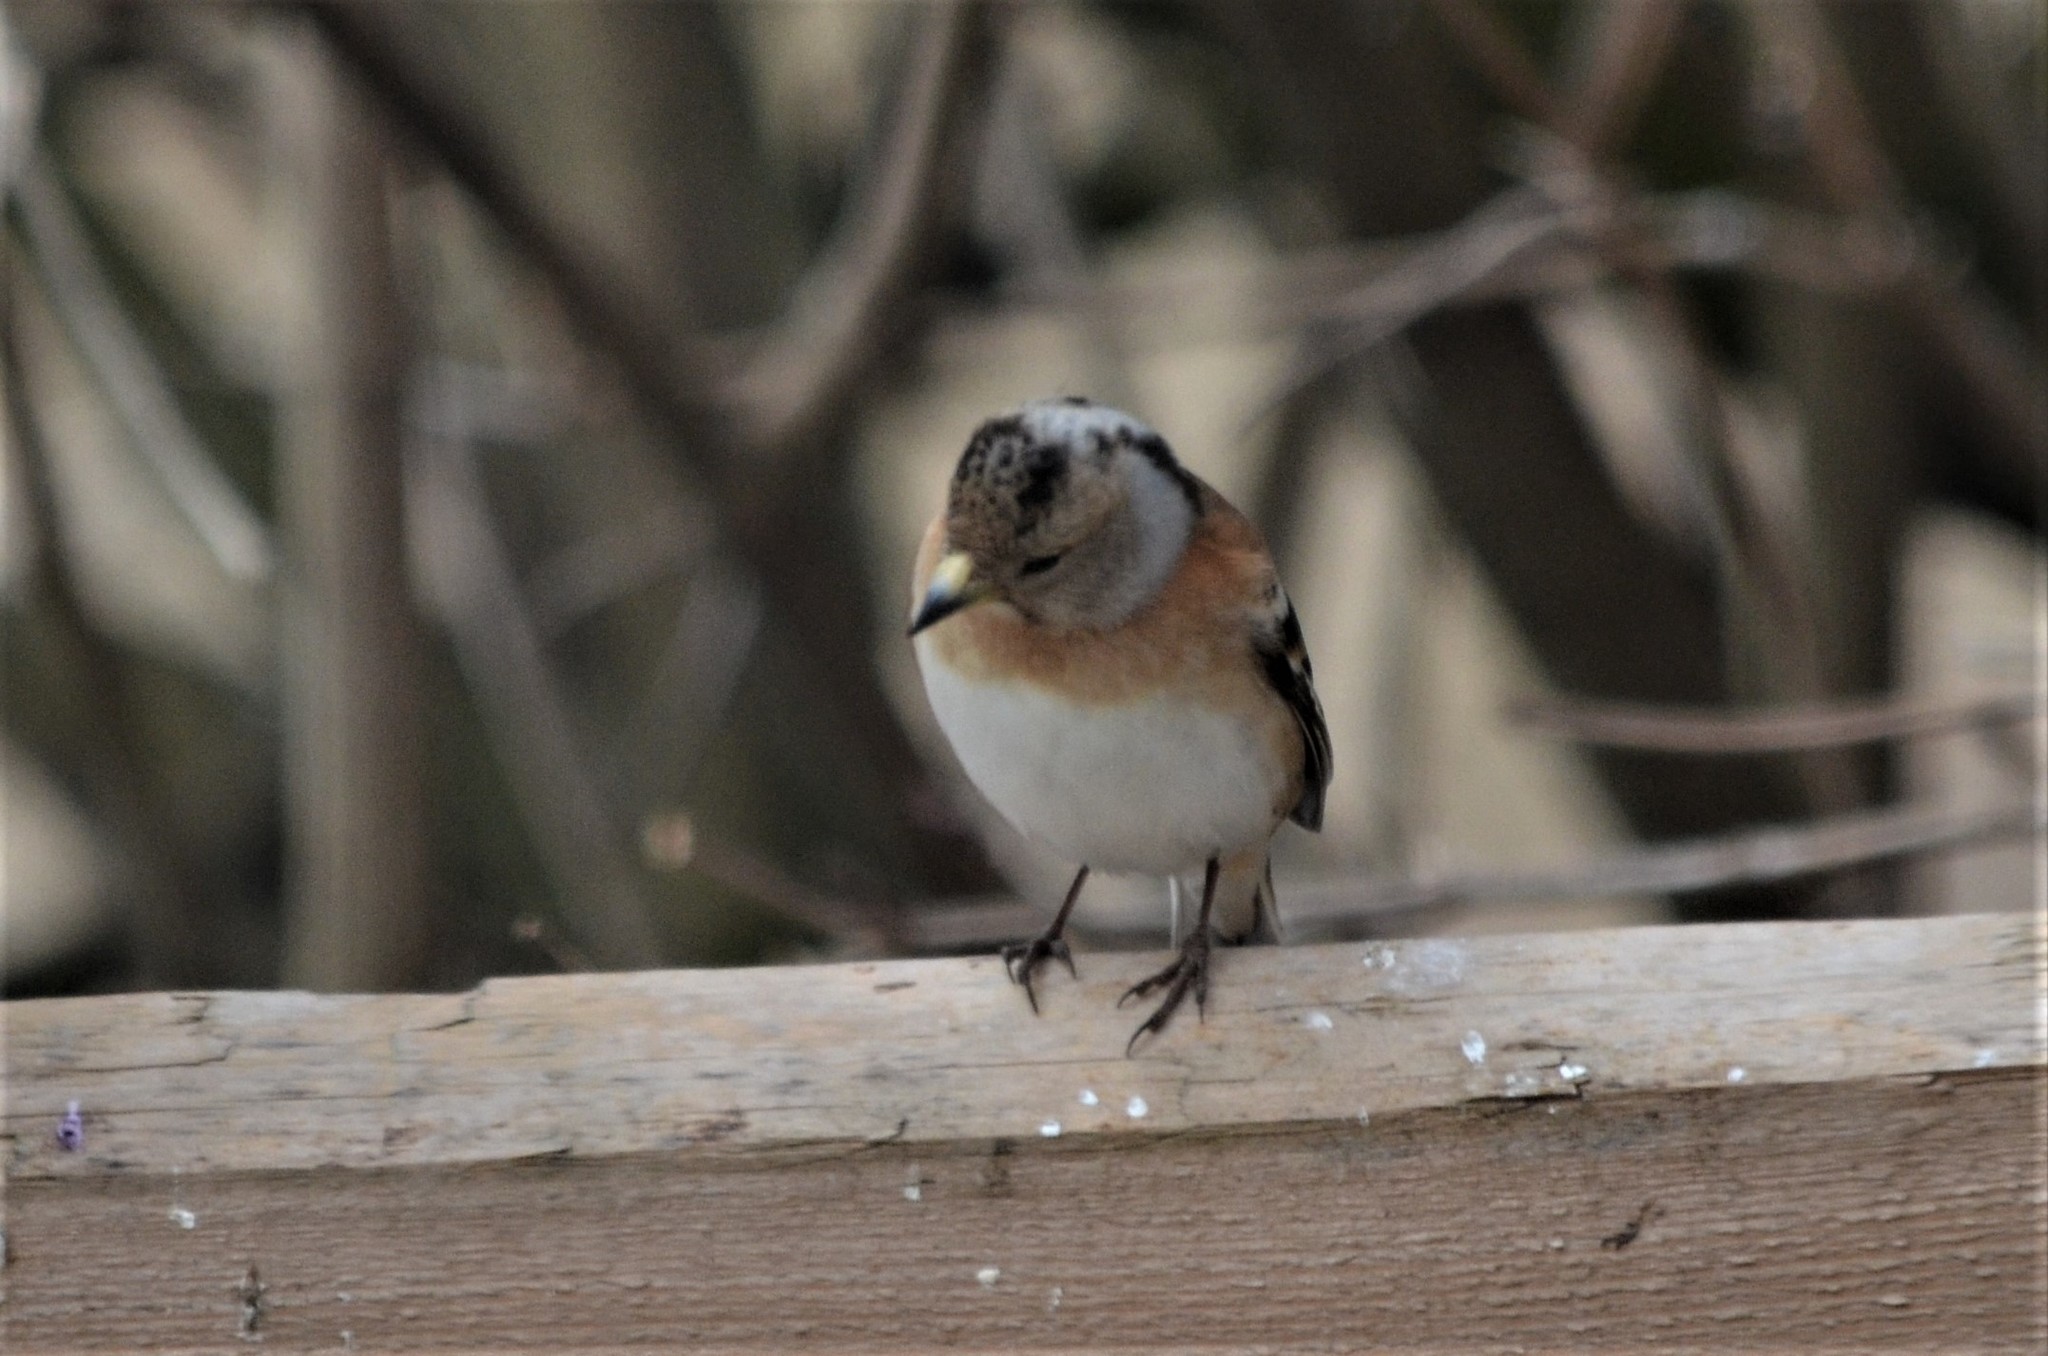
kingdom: Animalia
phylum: Chordata
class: Aves
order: Passeriformes
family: Fringillidae
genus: Fringilla
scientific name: Fringilla montifringilla
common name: Brambling
